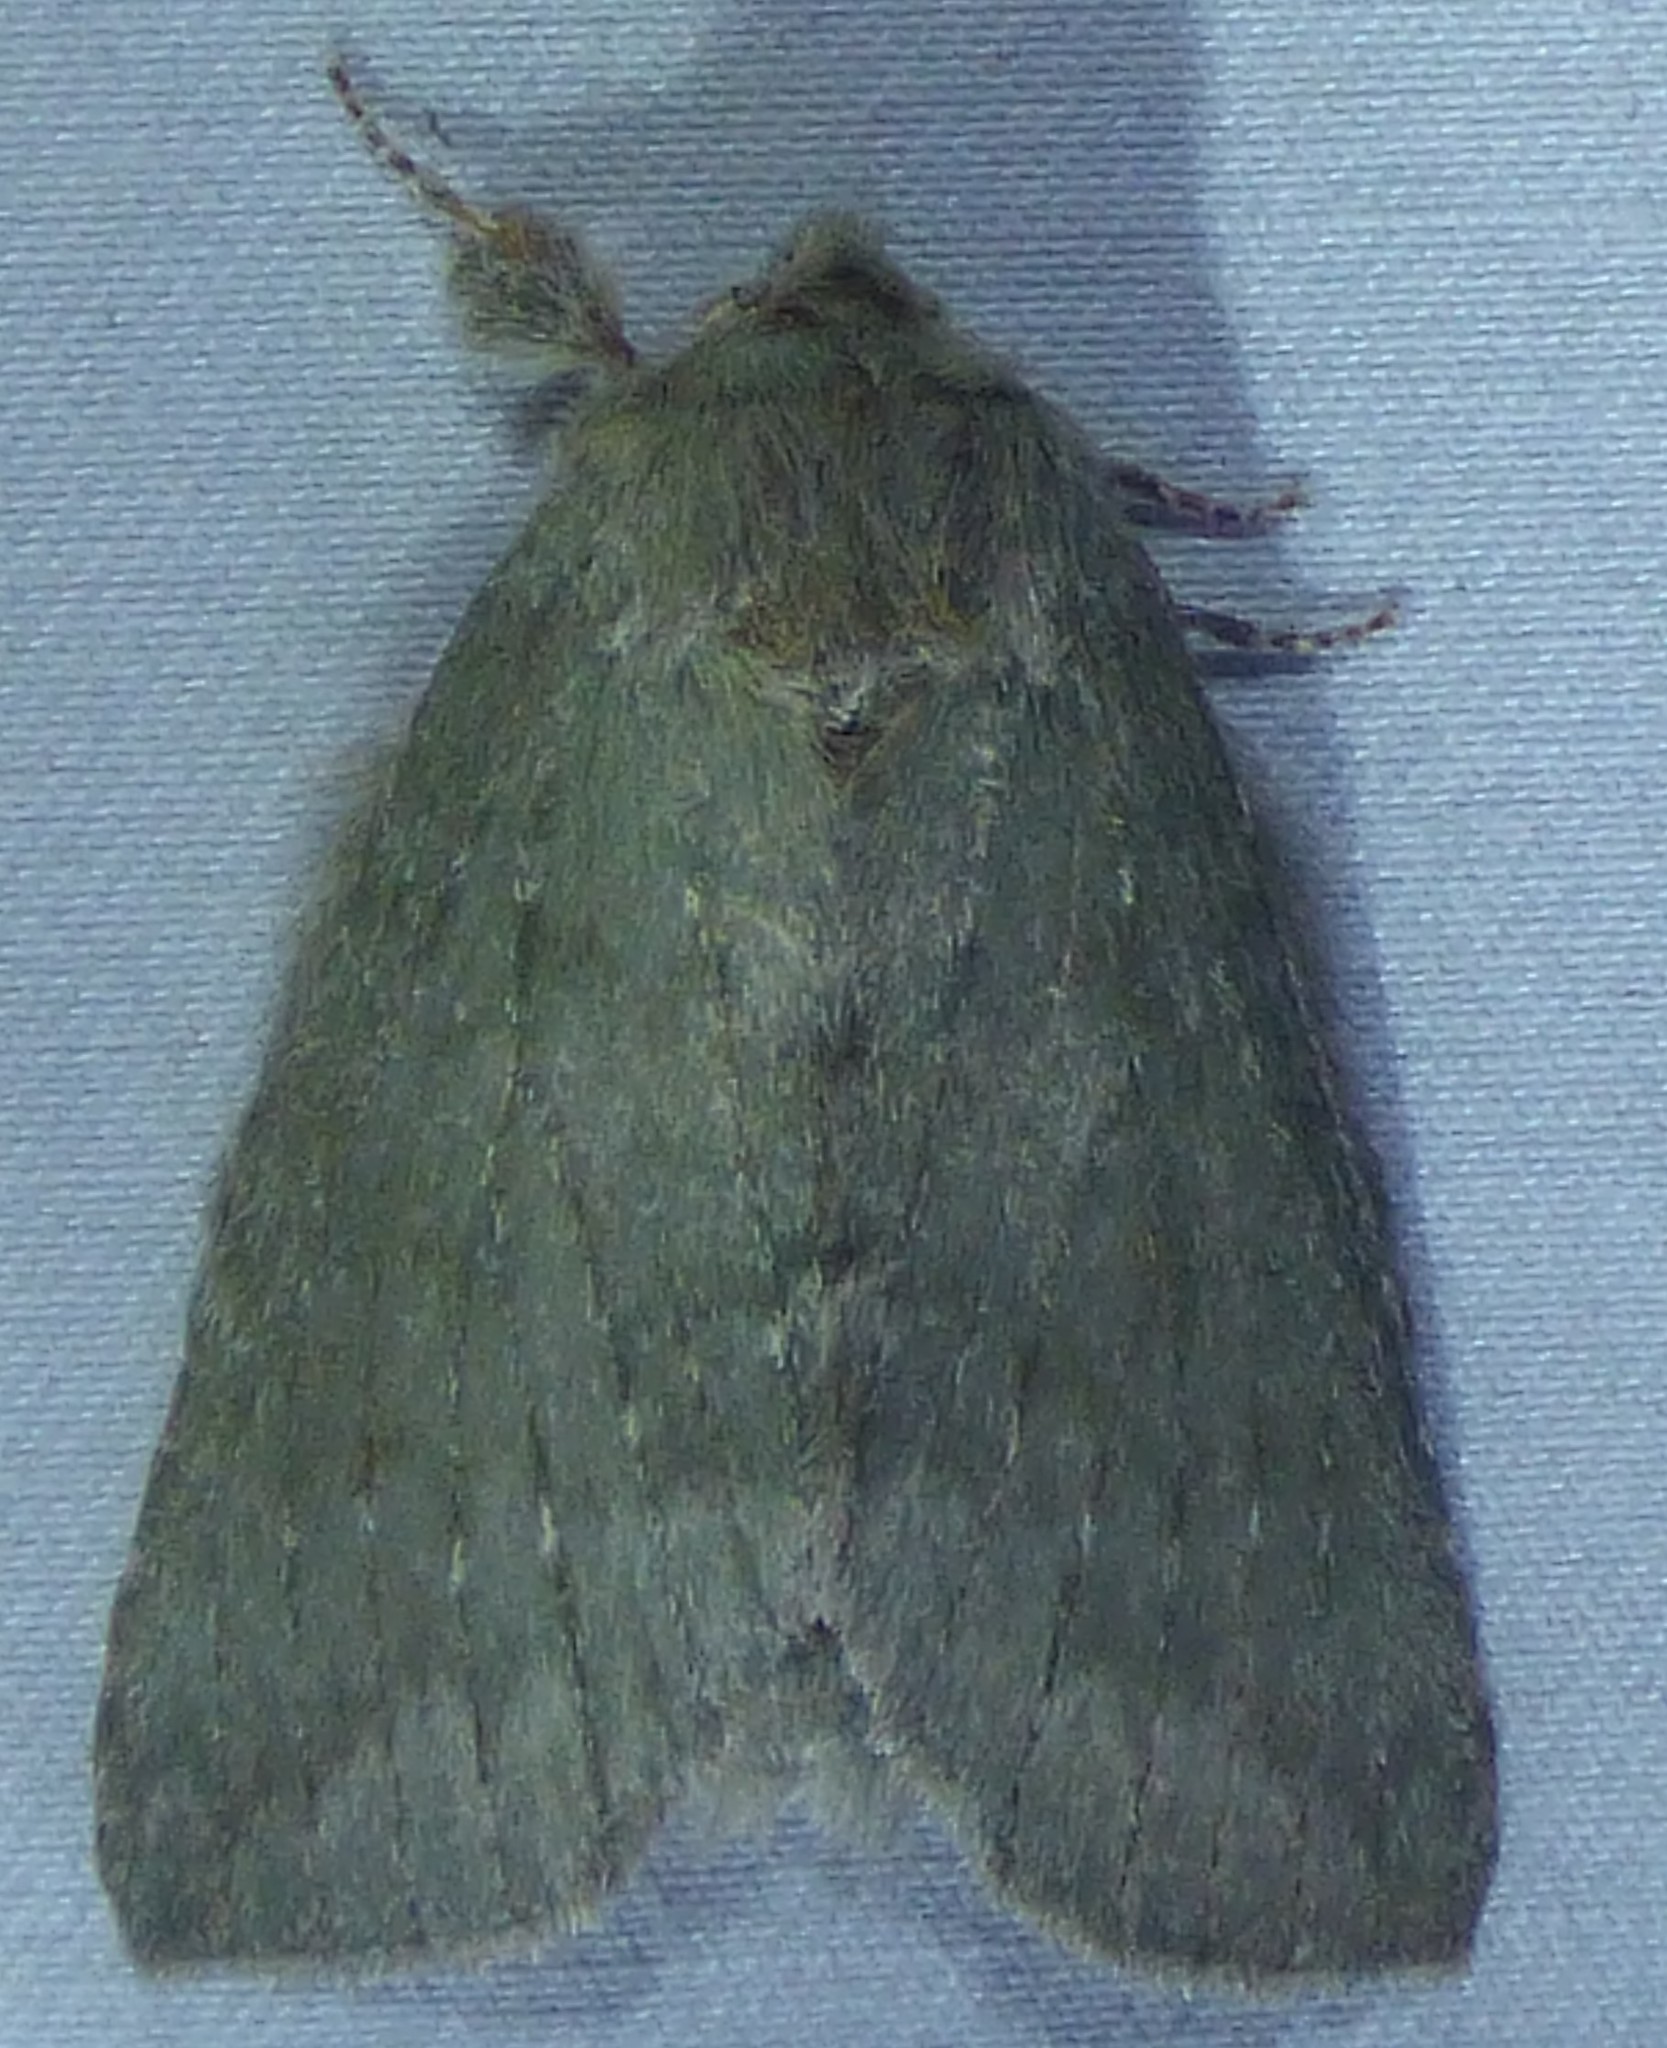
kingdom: Animalia
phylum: Arthropoda
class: Insecta
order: Lepidoptera
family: Notodontidae
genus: Misogada
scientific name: Misogada unicolor
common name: Drab prominent
